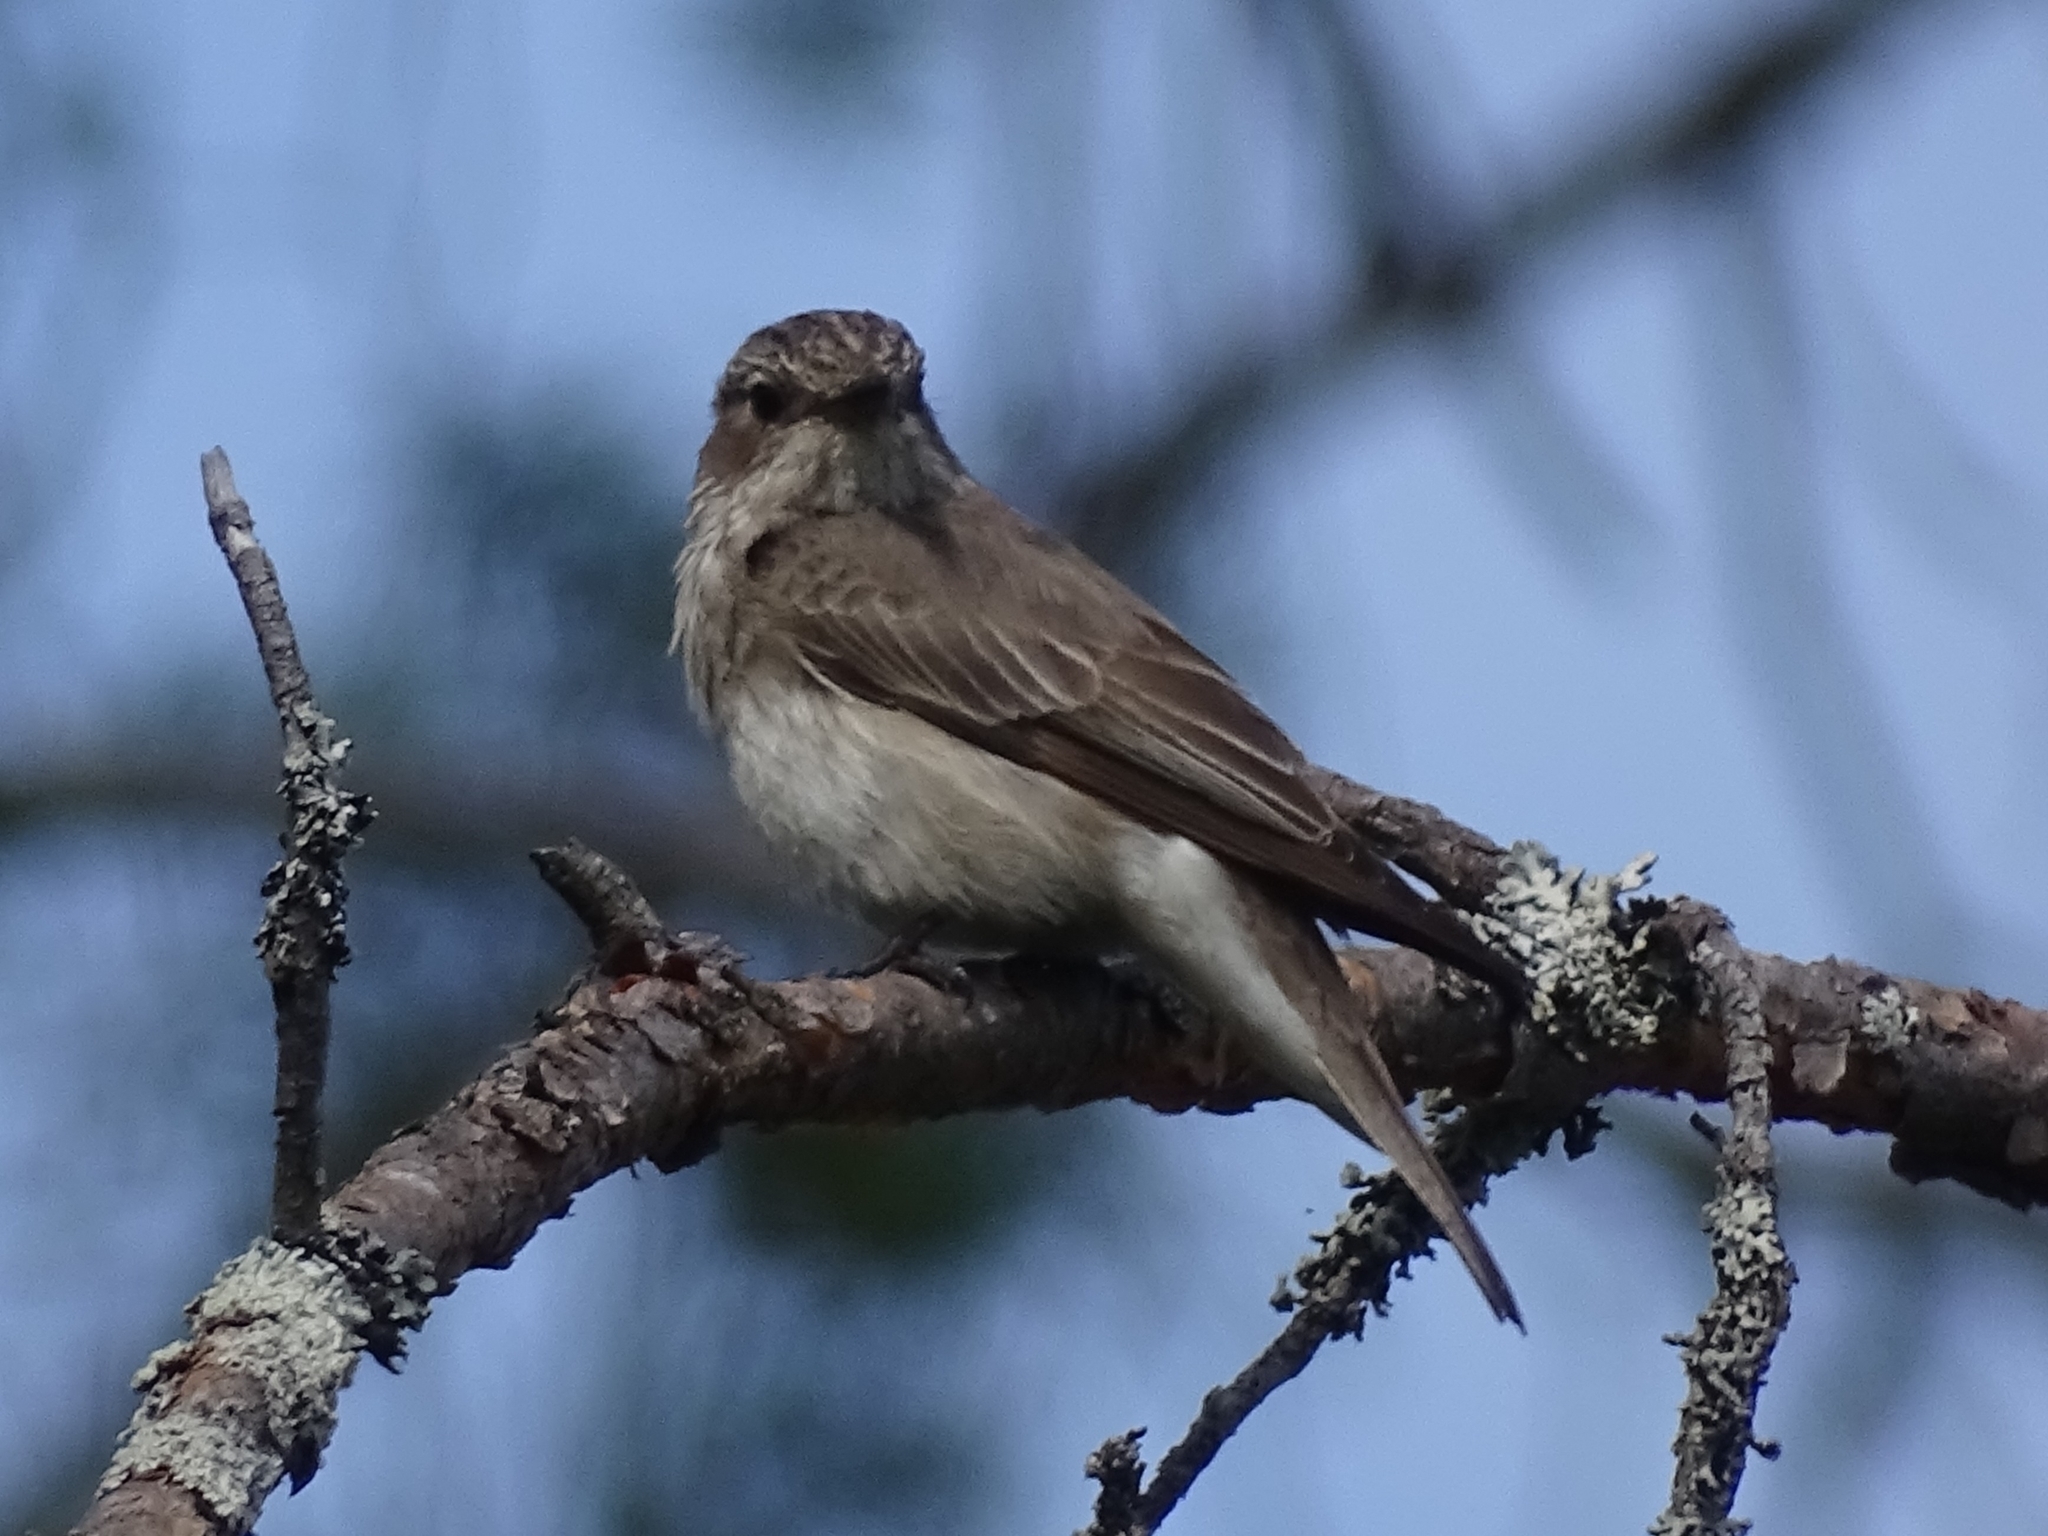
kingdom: Animalia
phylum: Chordata
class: Aves
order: Passeriformes
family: Muscicapidae
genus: Muscicapa
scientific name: Muscicapa striata
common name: Spotted flycatcher
